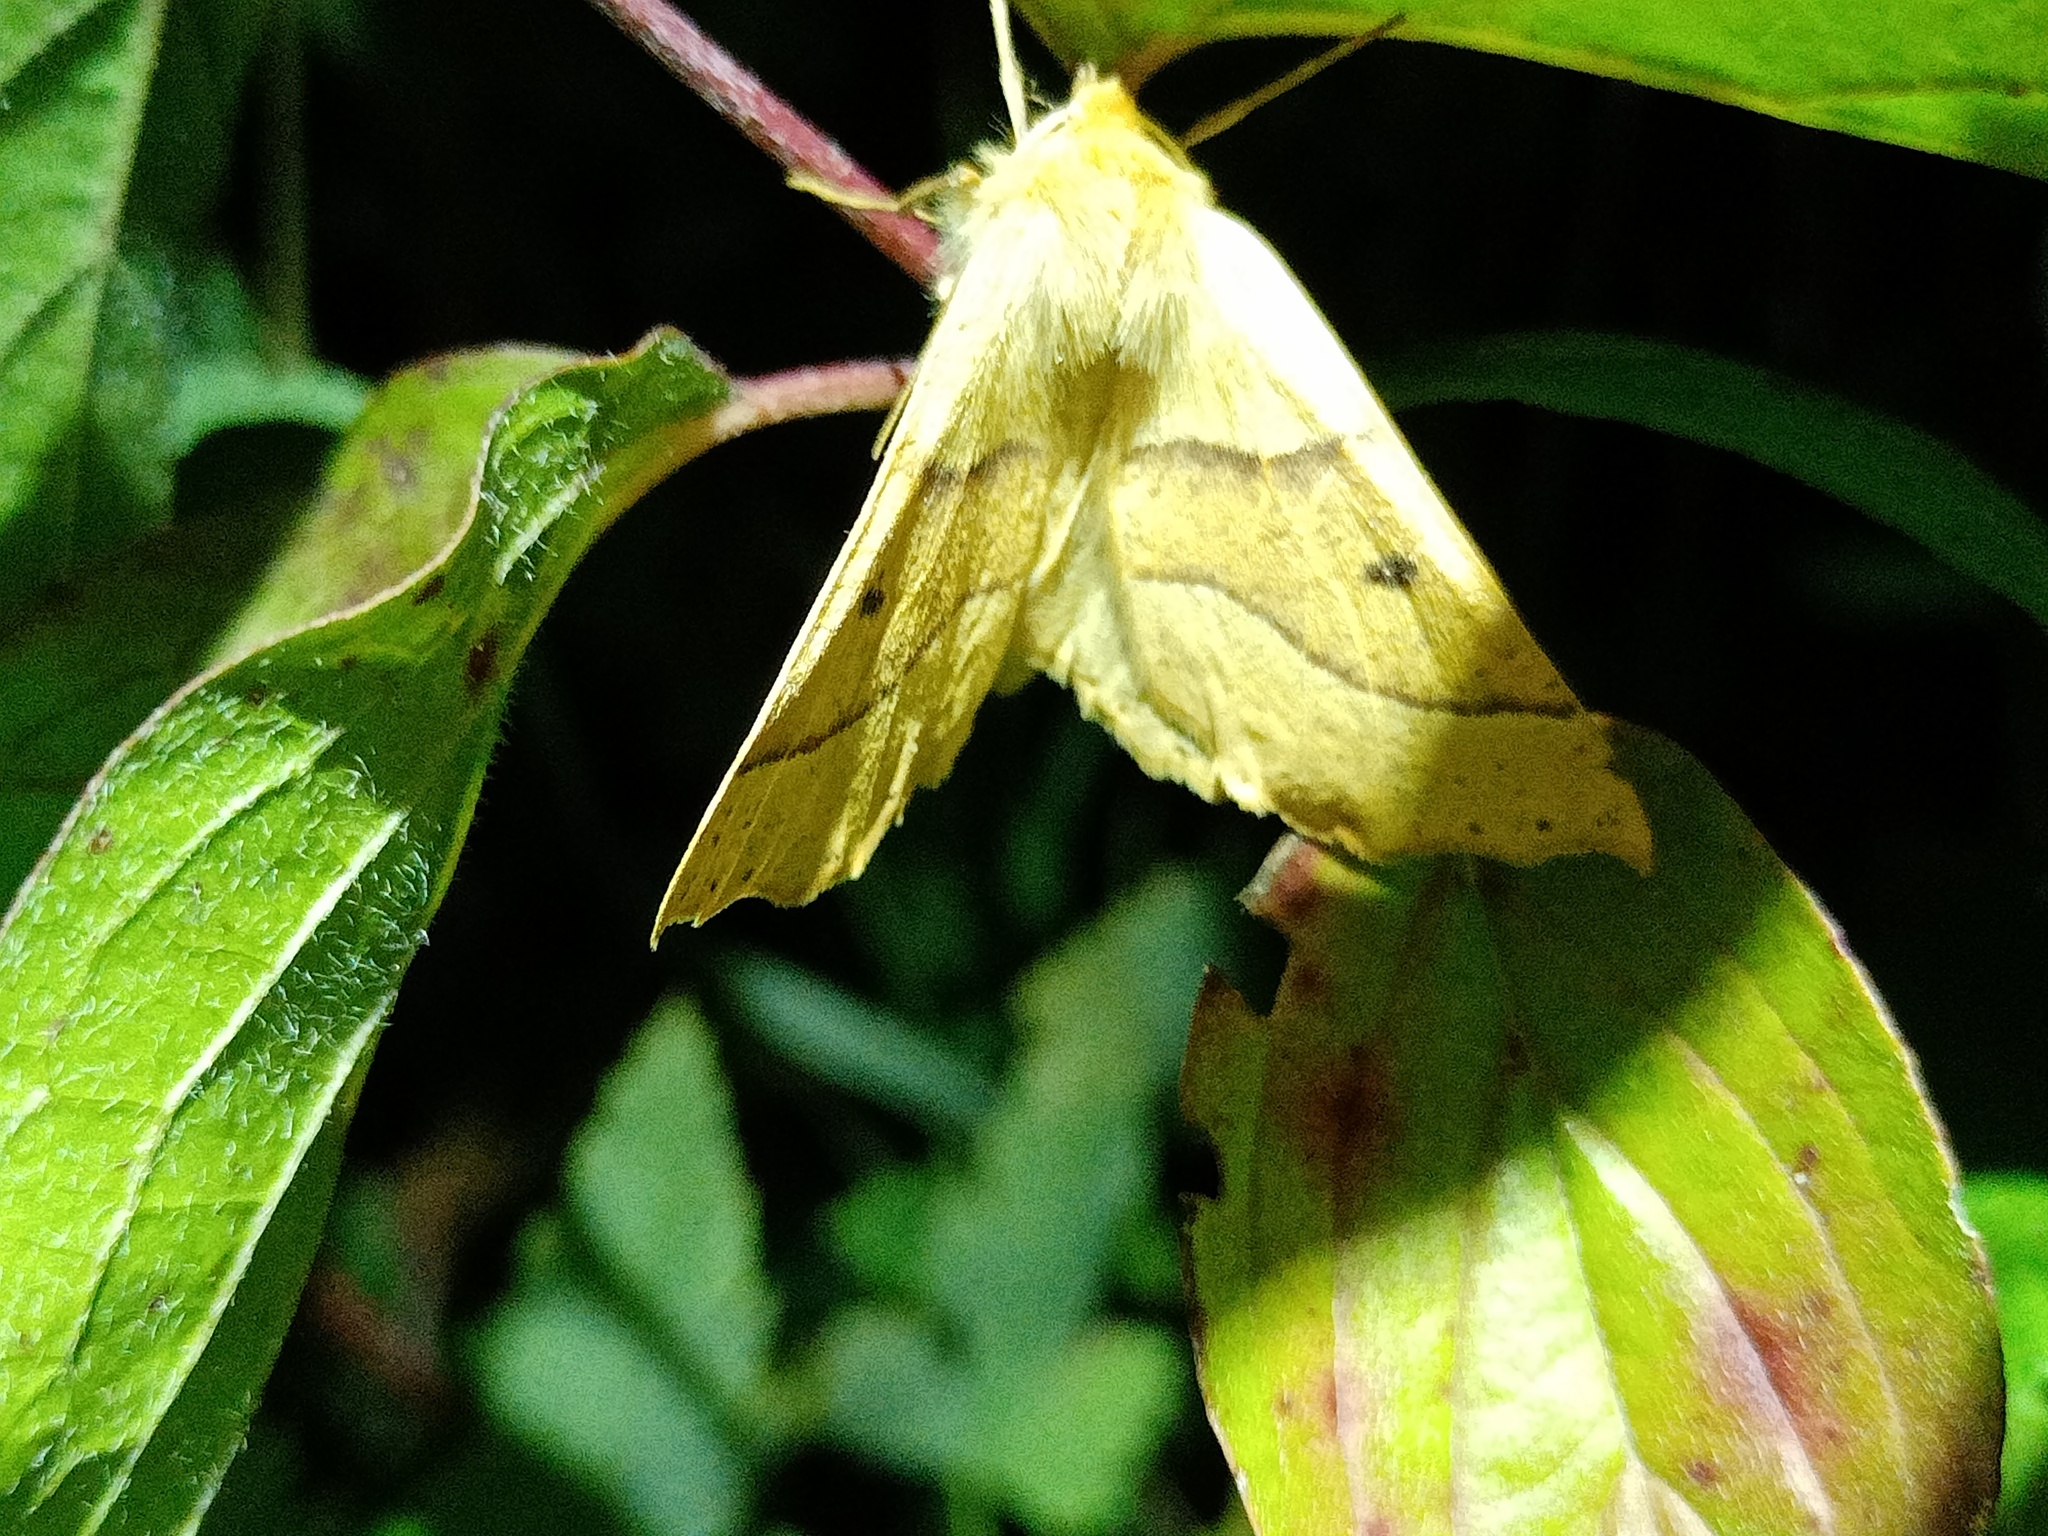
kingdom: Animalia
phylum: Arthropoda
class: Insecta
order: Lepidoptera
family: Geometridae
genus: Crocallis
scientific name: Crocallis elinguaria
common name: Scalloped oak
